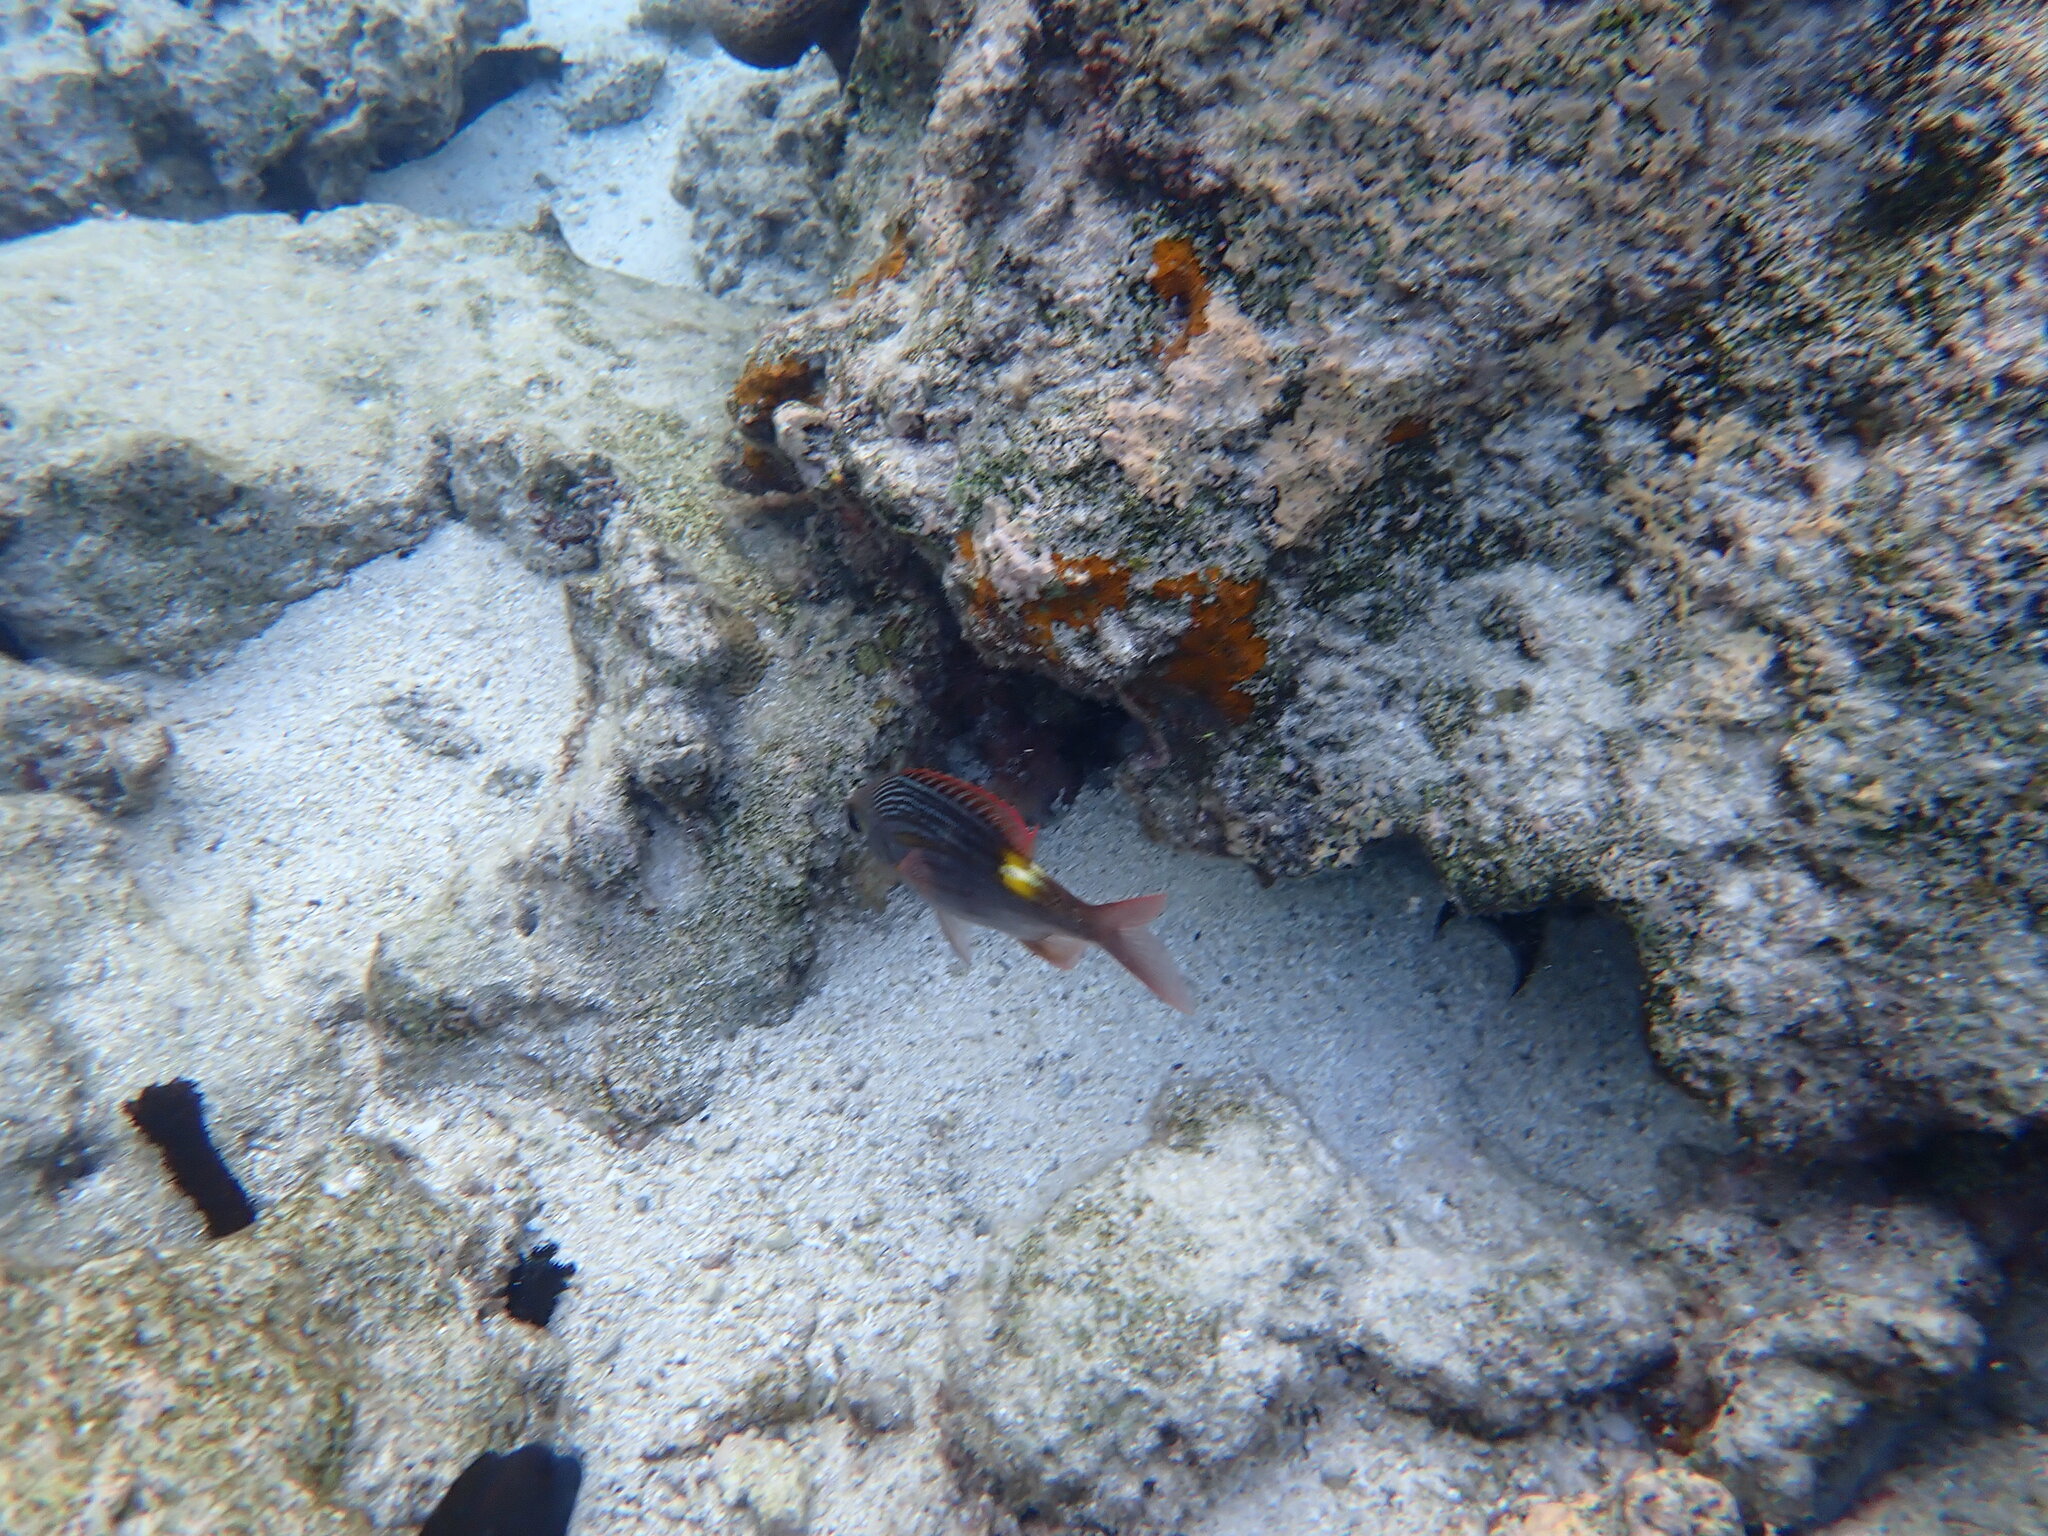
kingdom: Animalia
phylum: Chordata
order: Perciformes
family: Lethrinidae
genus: Gnathodentex
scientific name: Gnathodentex aureolineatus
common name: Gold-lined sea bream
